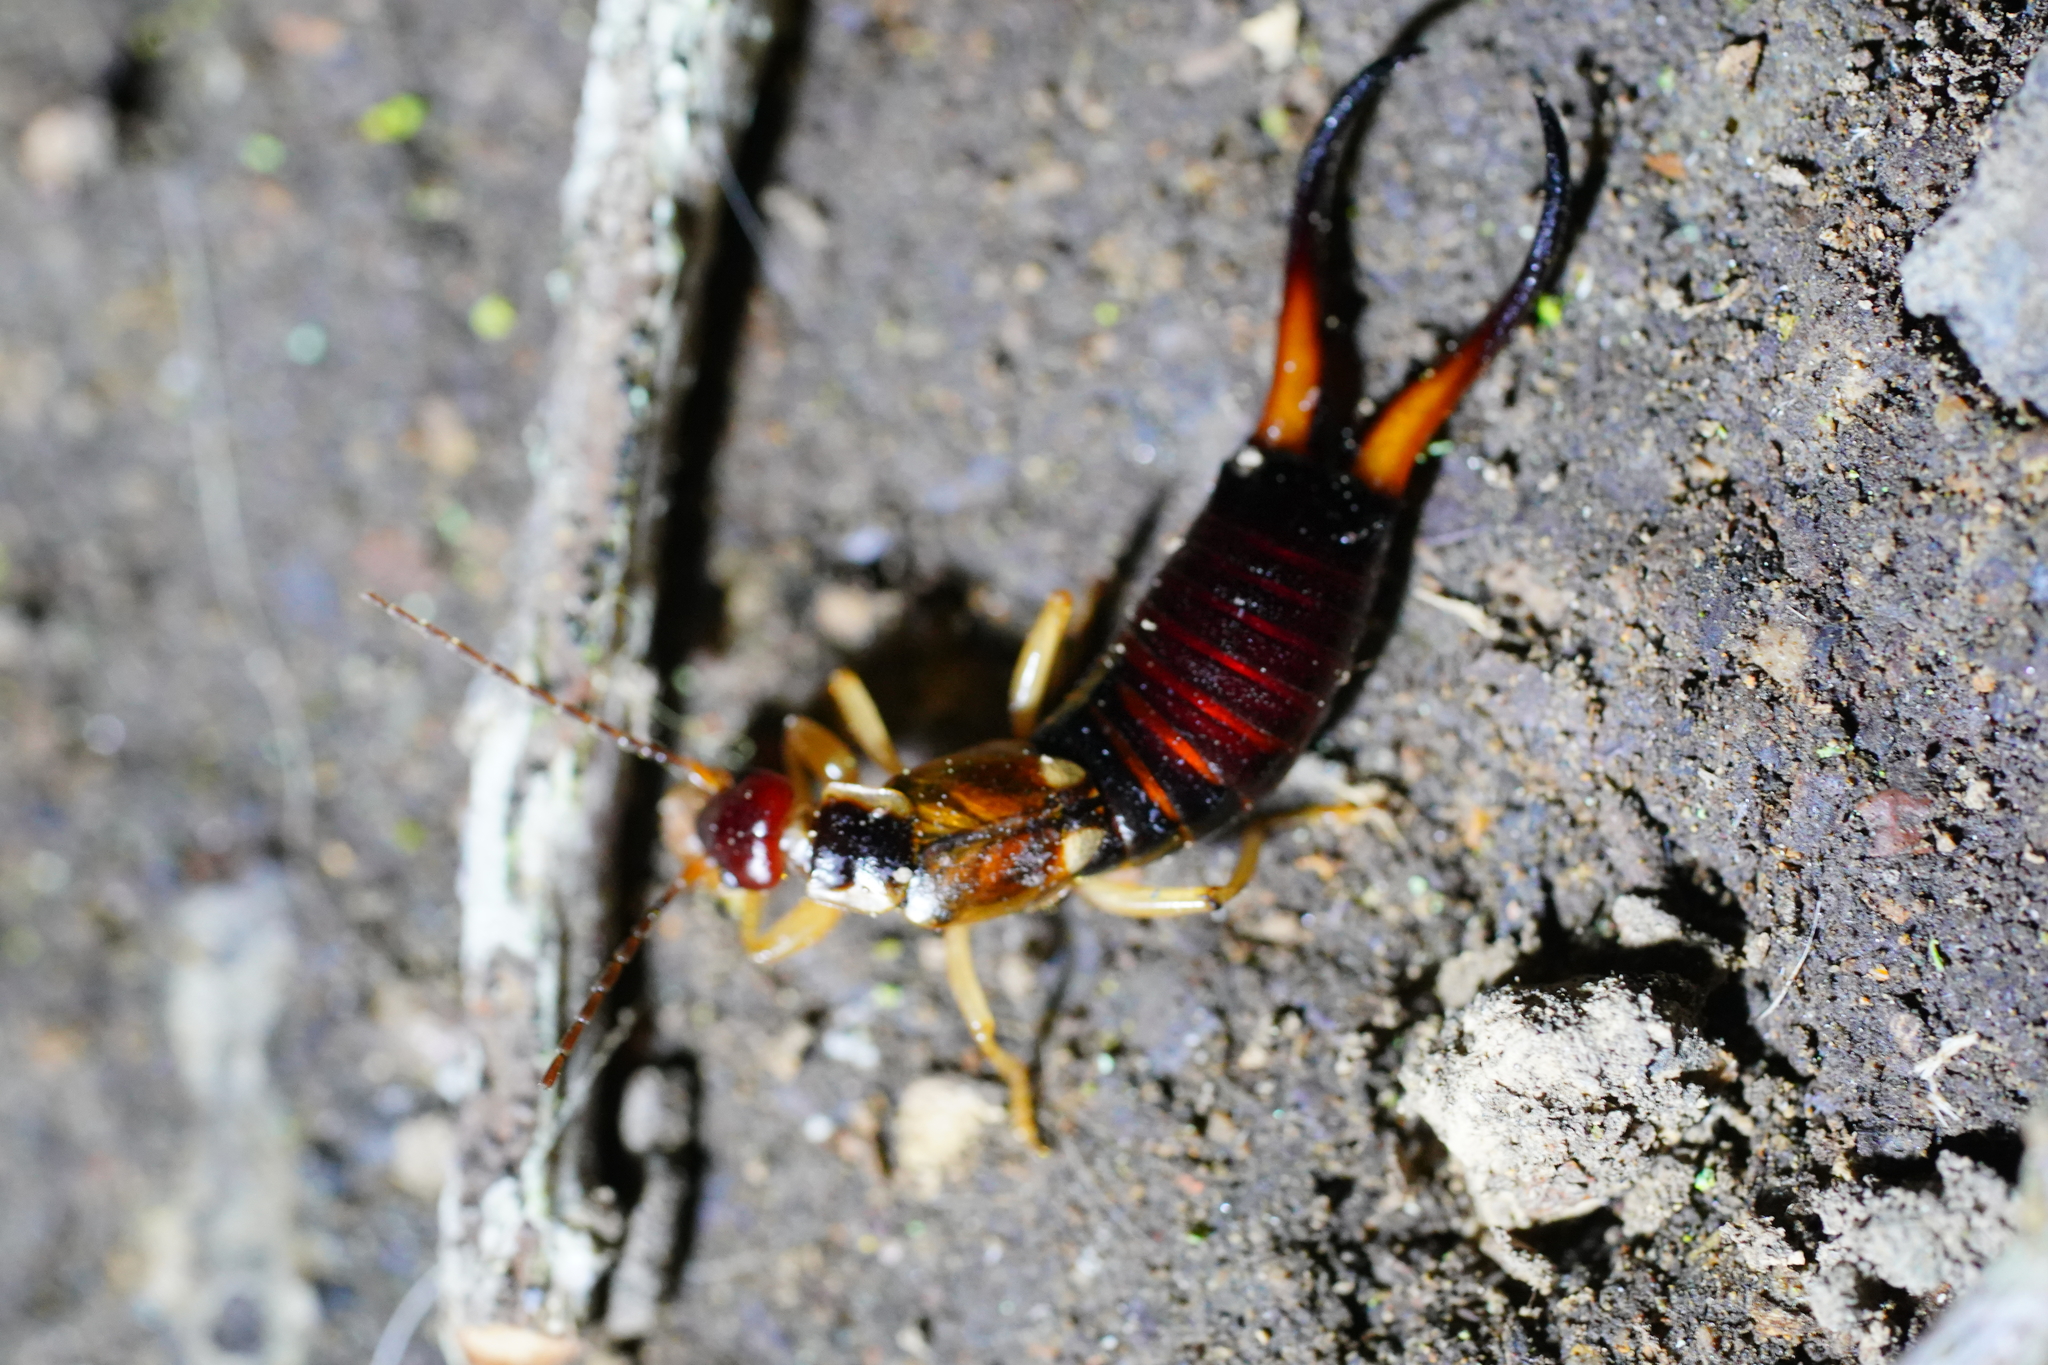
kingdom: Animalia
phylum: Arthropoda
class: Insecta
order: Dermaptera
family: Forficulidae
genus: Forficula
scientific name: Forficula
